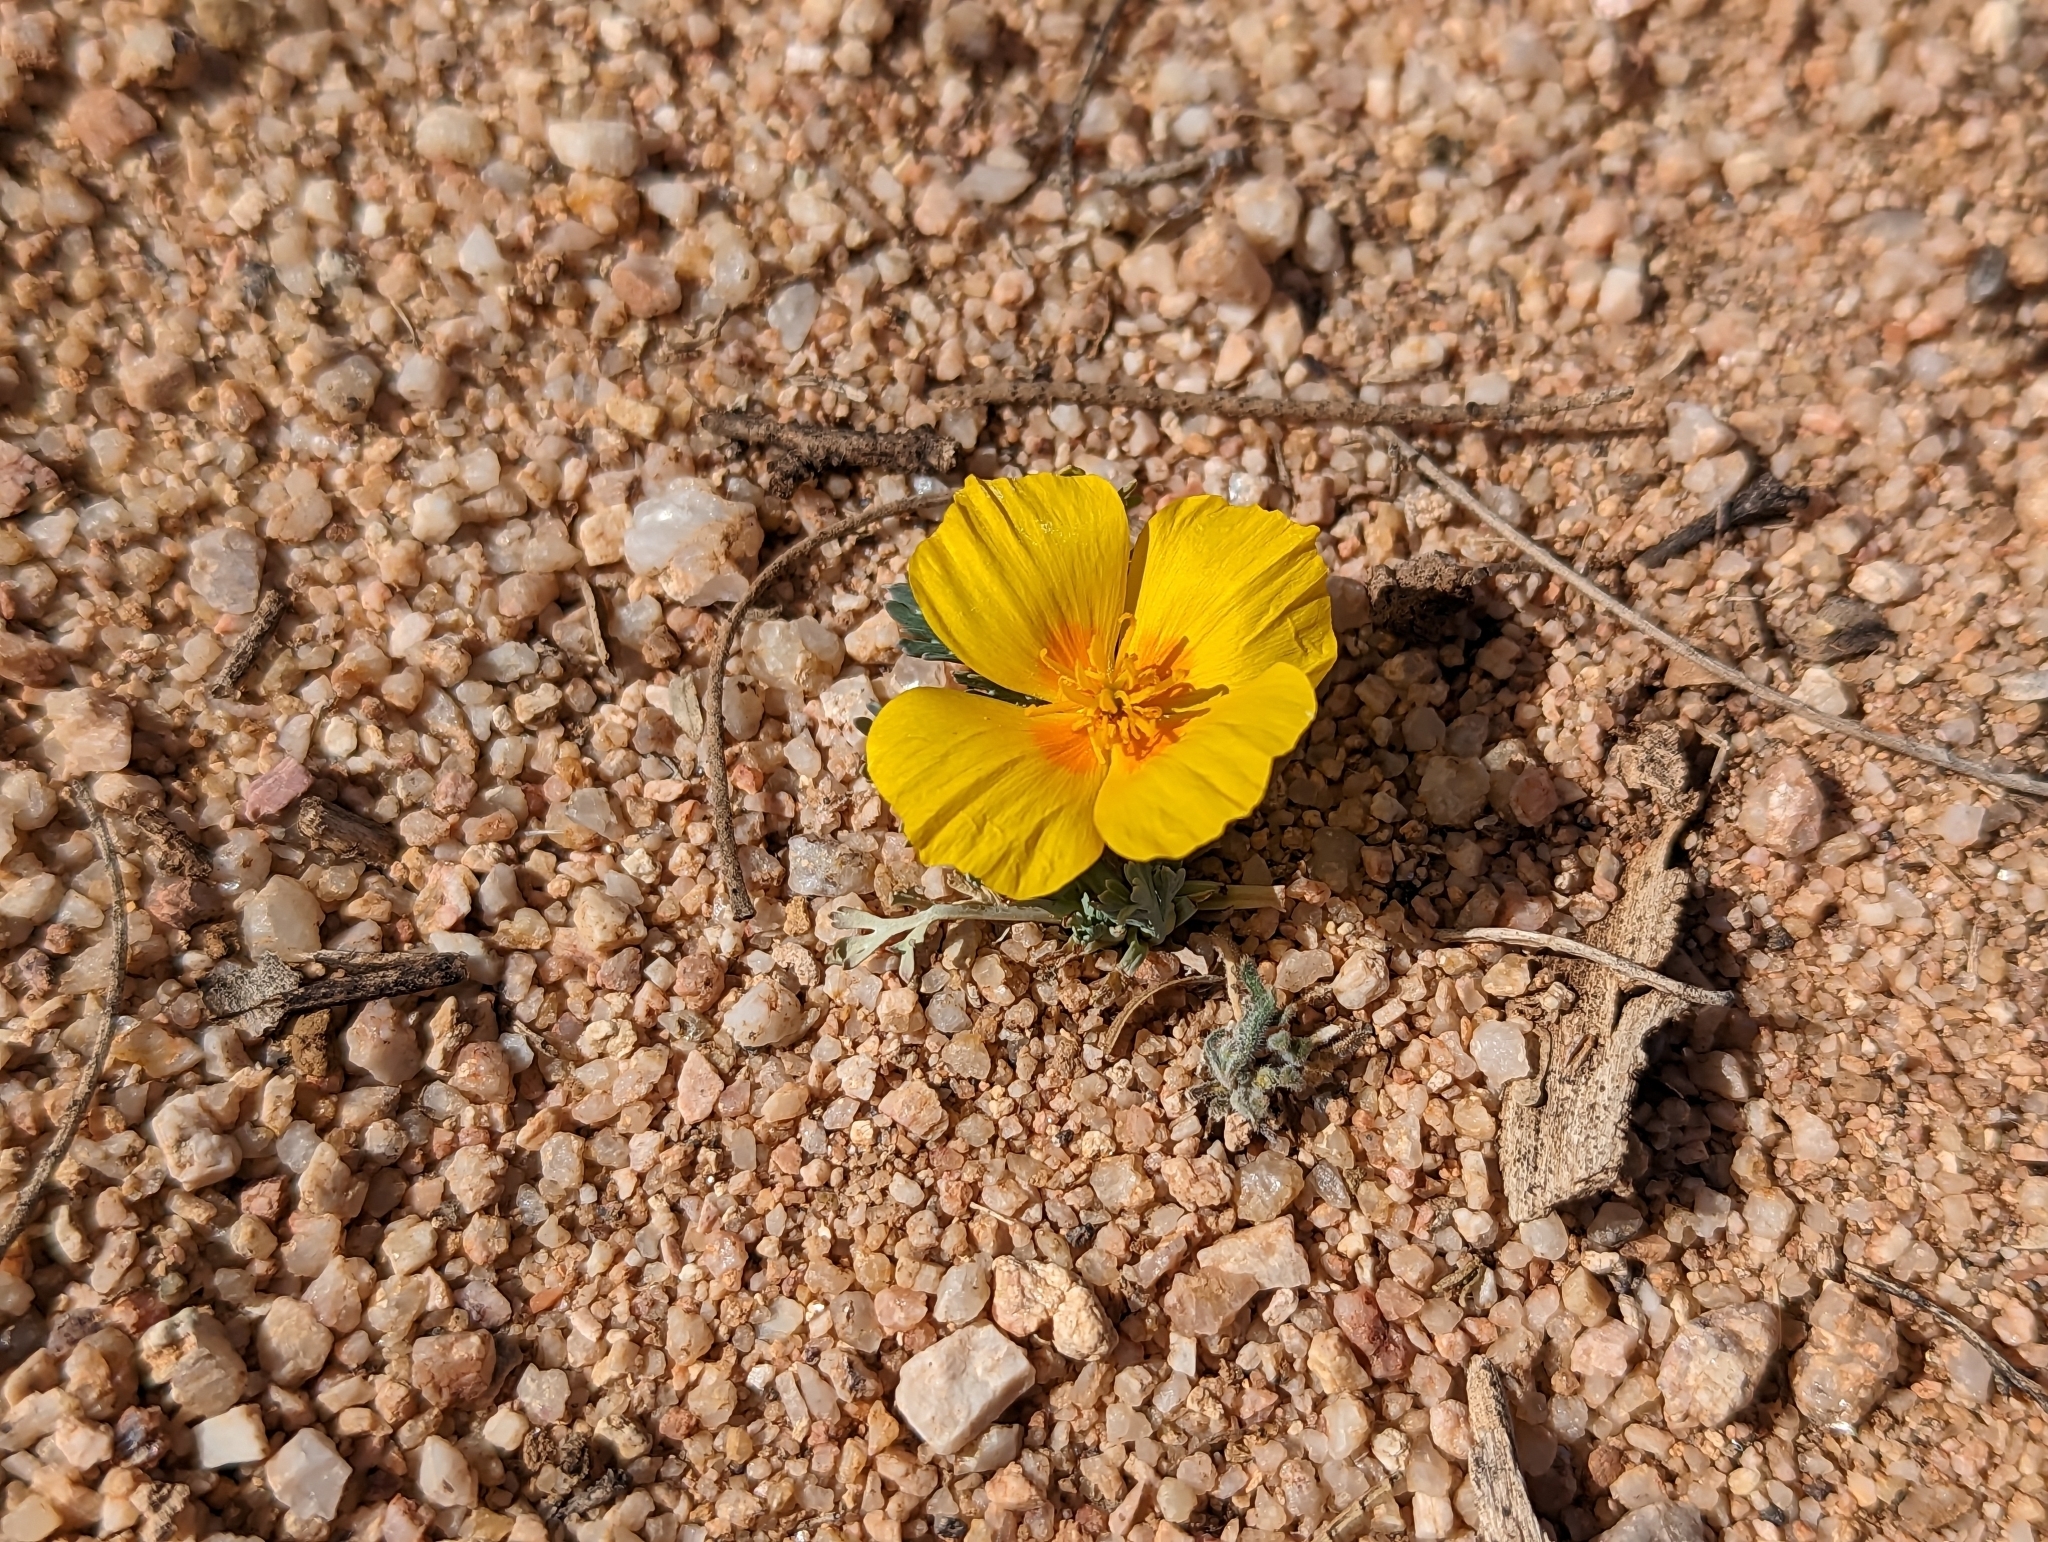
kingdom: Plantae
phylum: Tracheophyta
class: Magnoliopsida
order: Ranunculales
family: Papaveraceae
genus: Eschscholzia
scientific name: Eschscholzia californica
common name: California poppy
